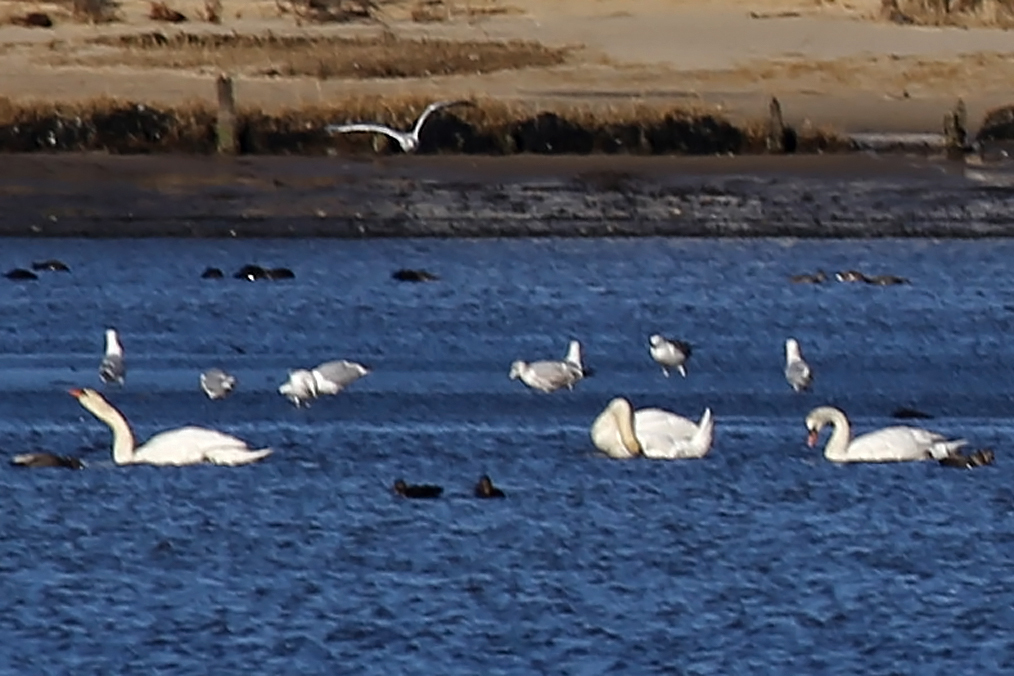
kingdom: Animalia
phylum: Chordata
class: Aves
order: Anseriformes
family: Anatidae
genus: Cygnus
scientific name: Cygnus olor
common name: Mute swan
